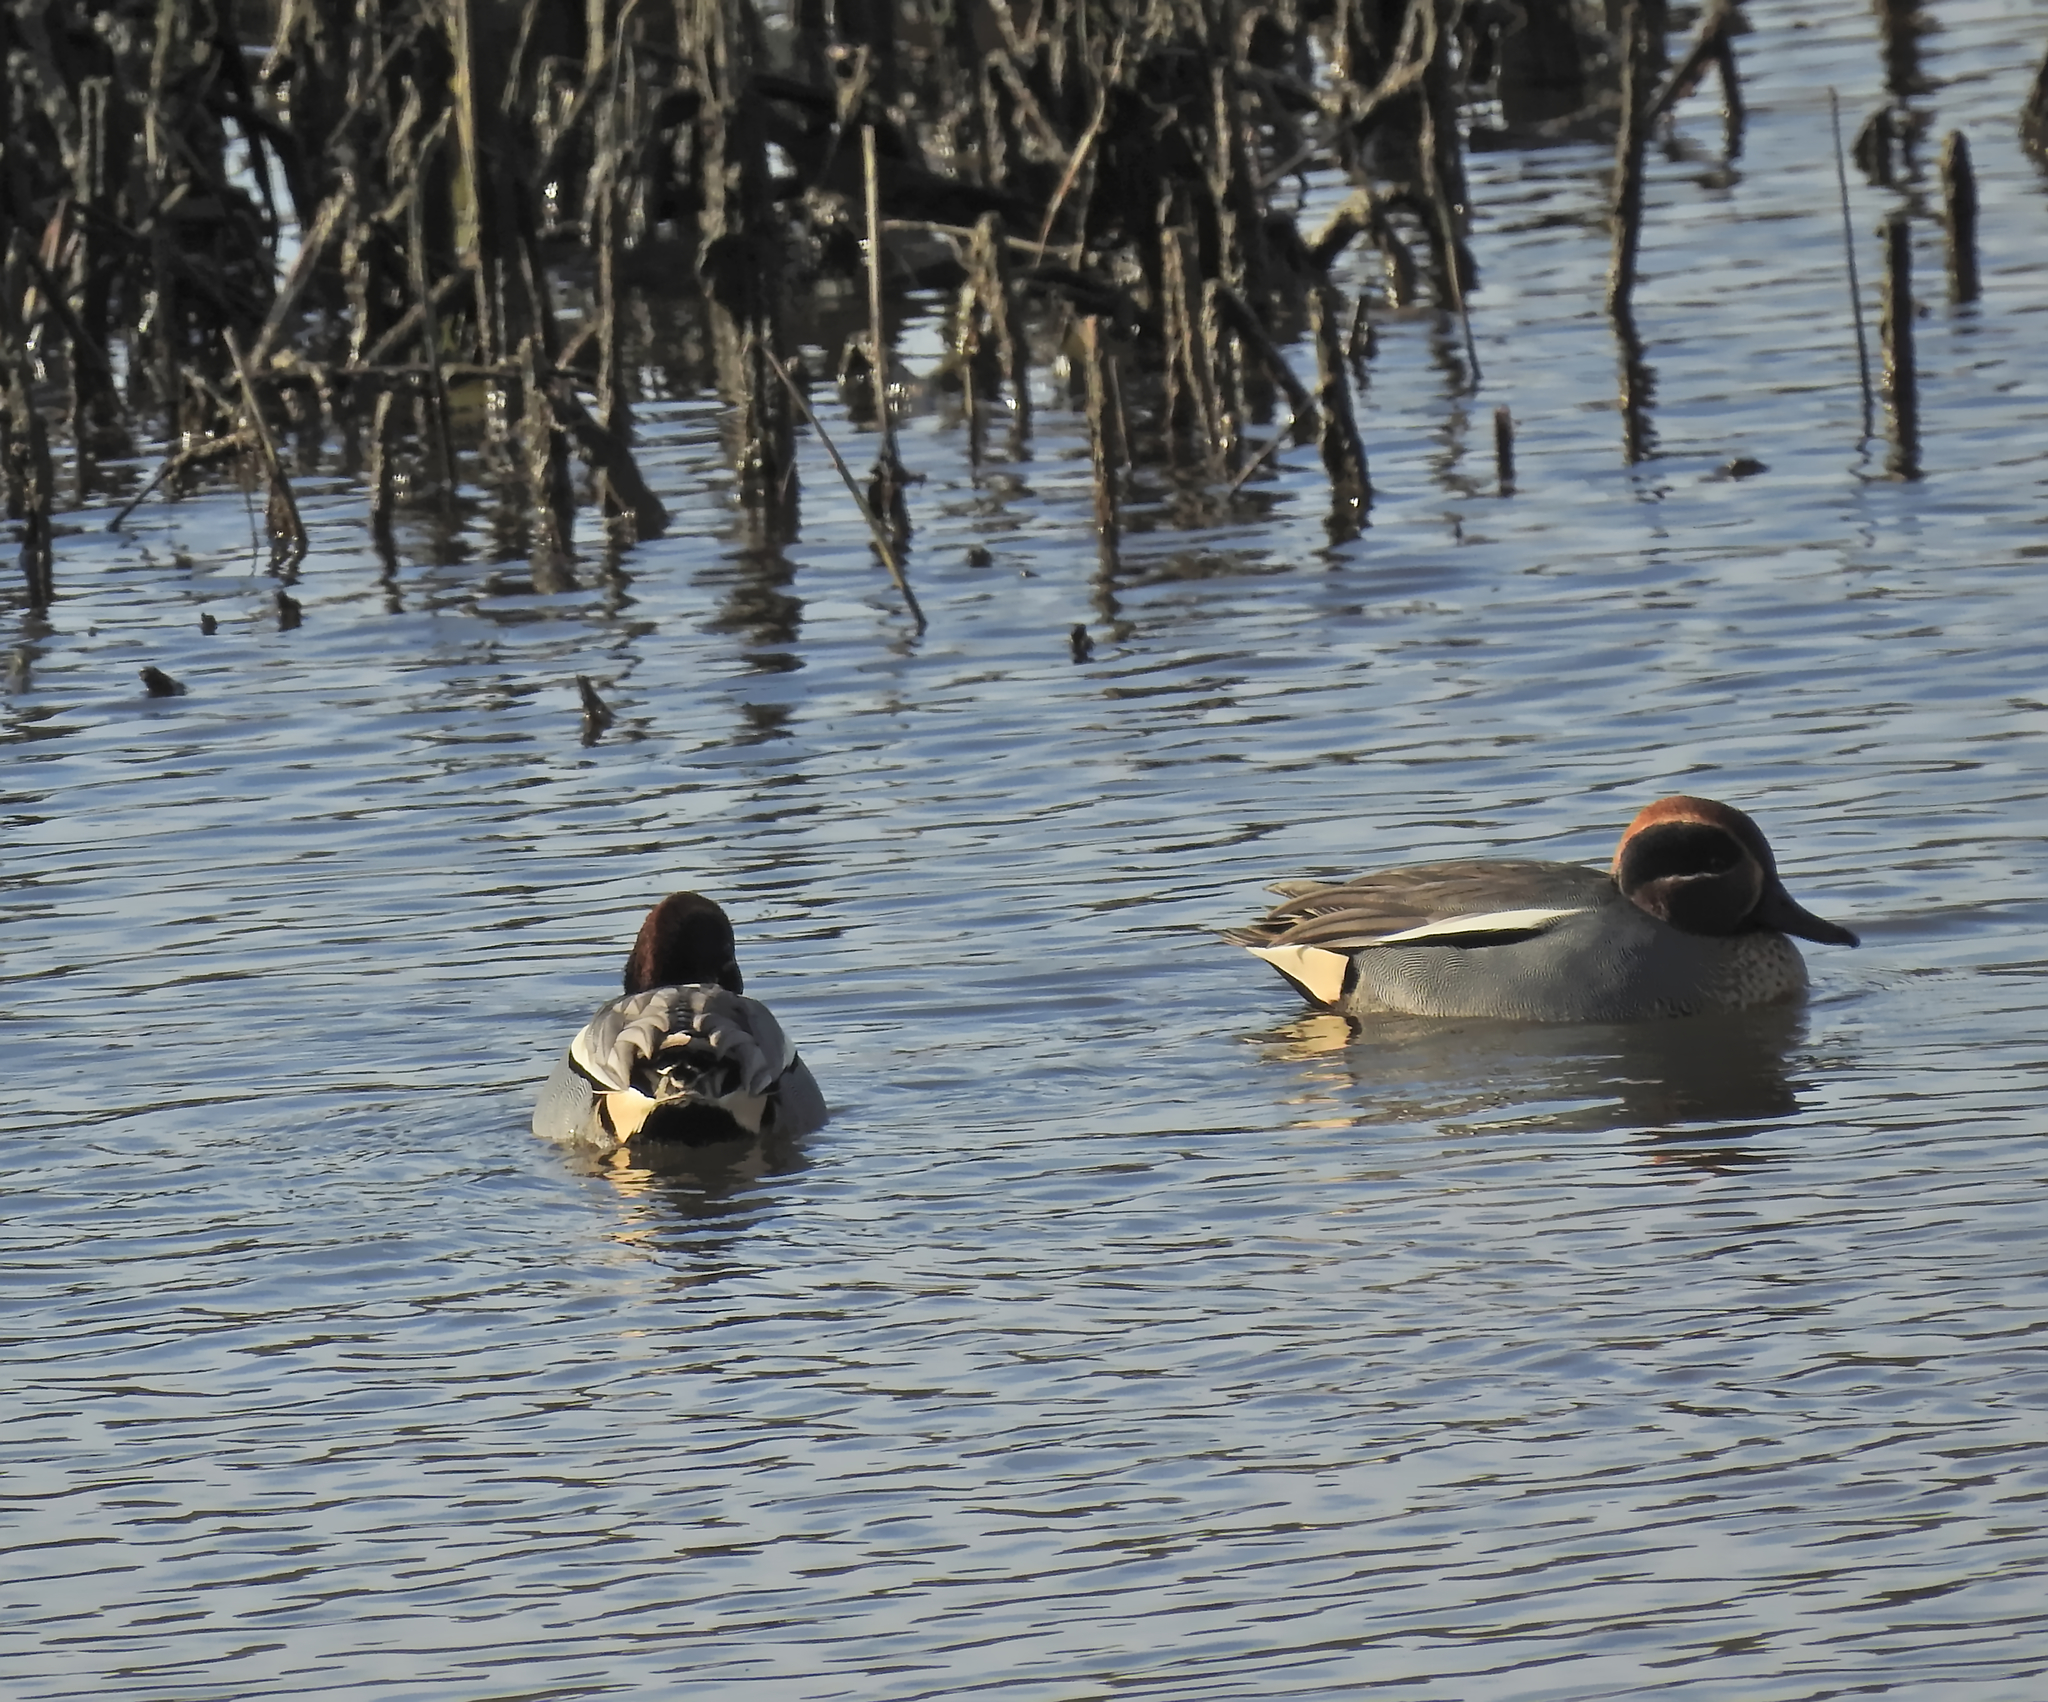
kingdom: Animalia
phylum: Chordata
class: Aves
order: Anseriformes
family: Anatidae
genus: Anas
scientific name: Anas crecca
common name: Eurasian teal
